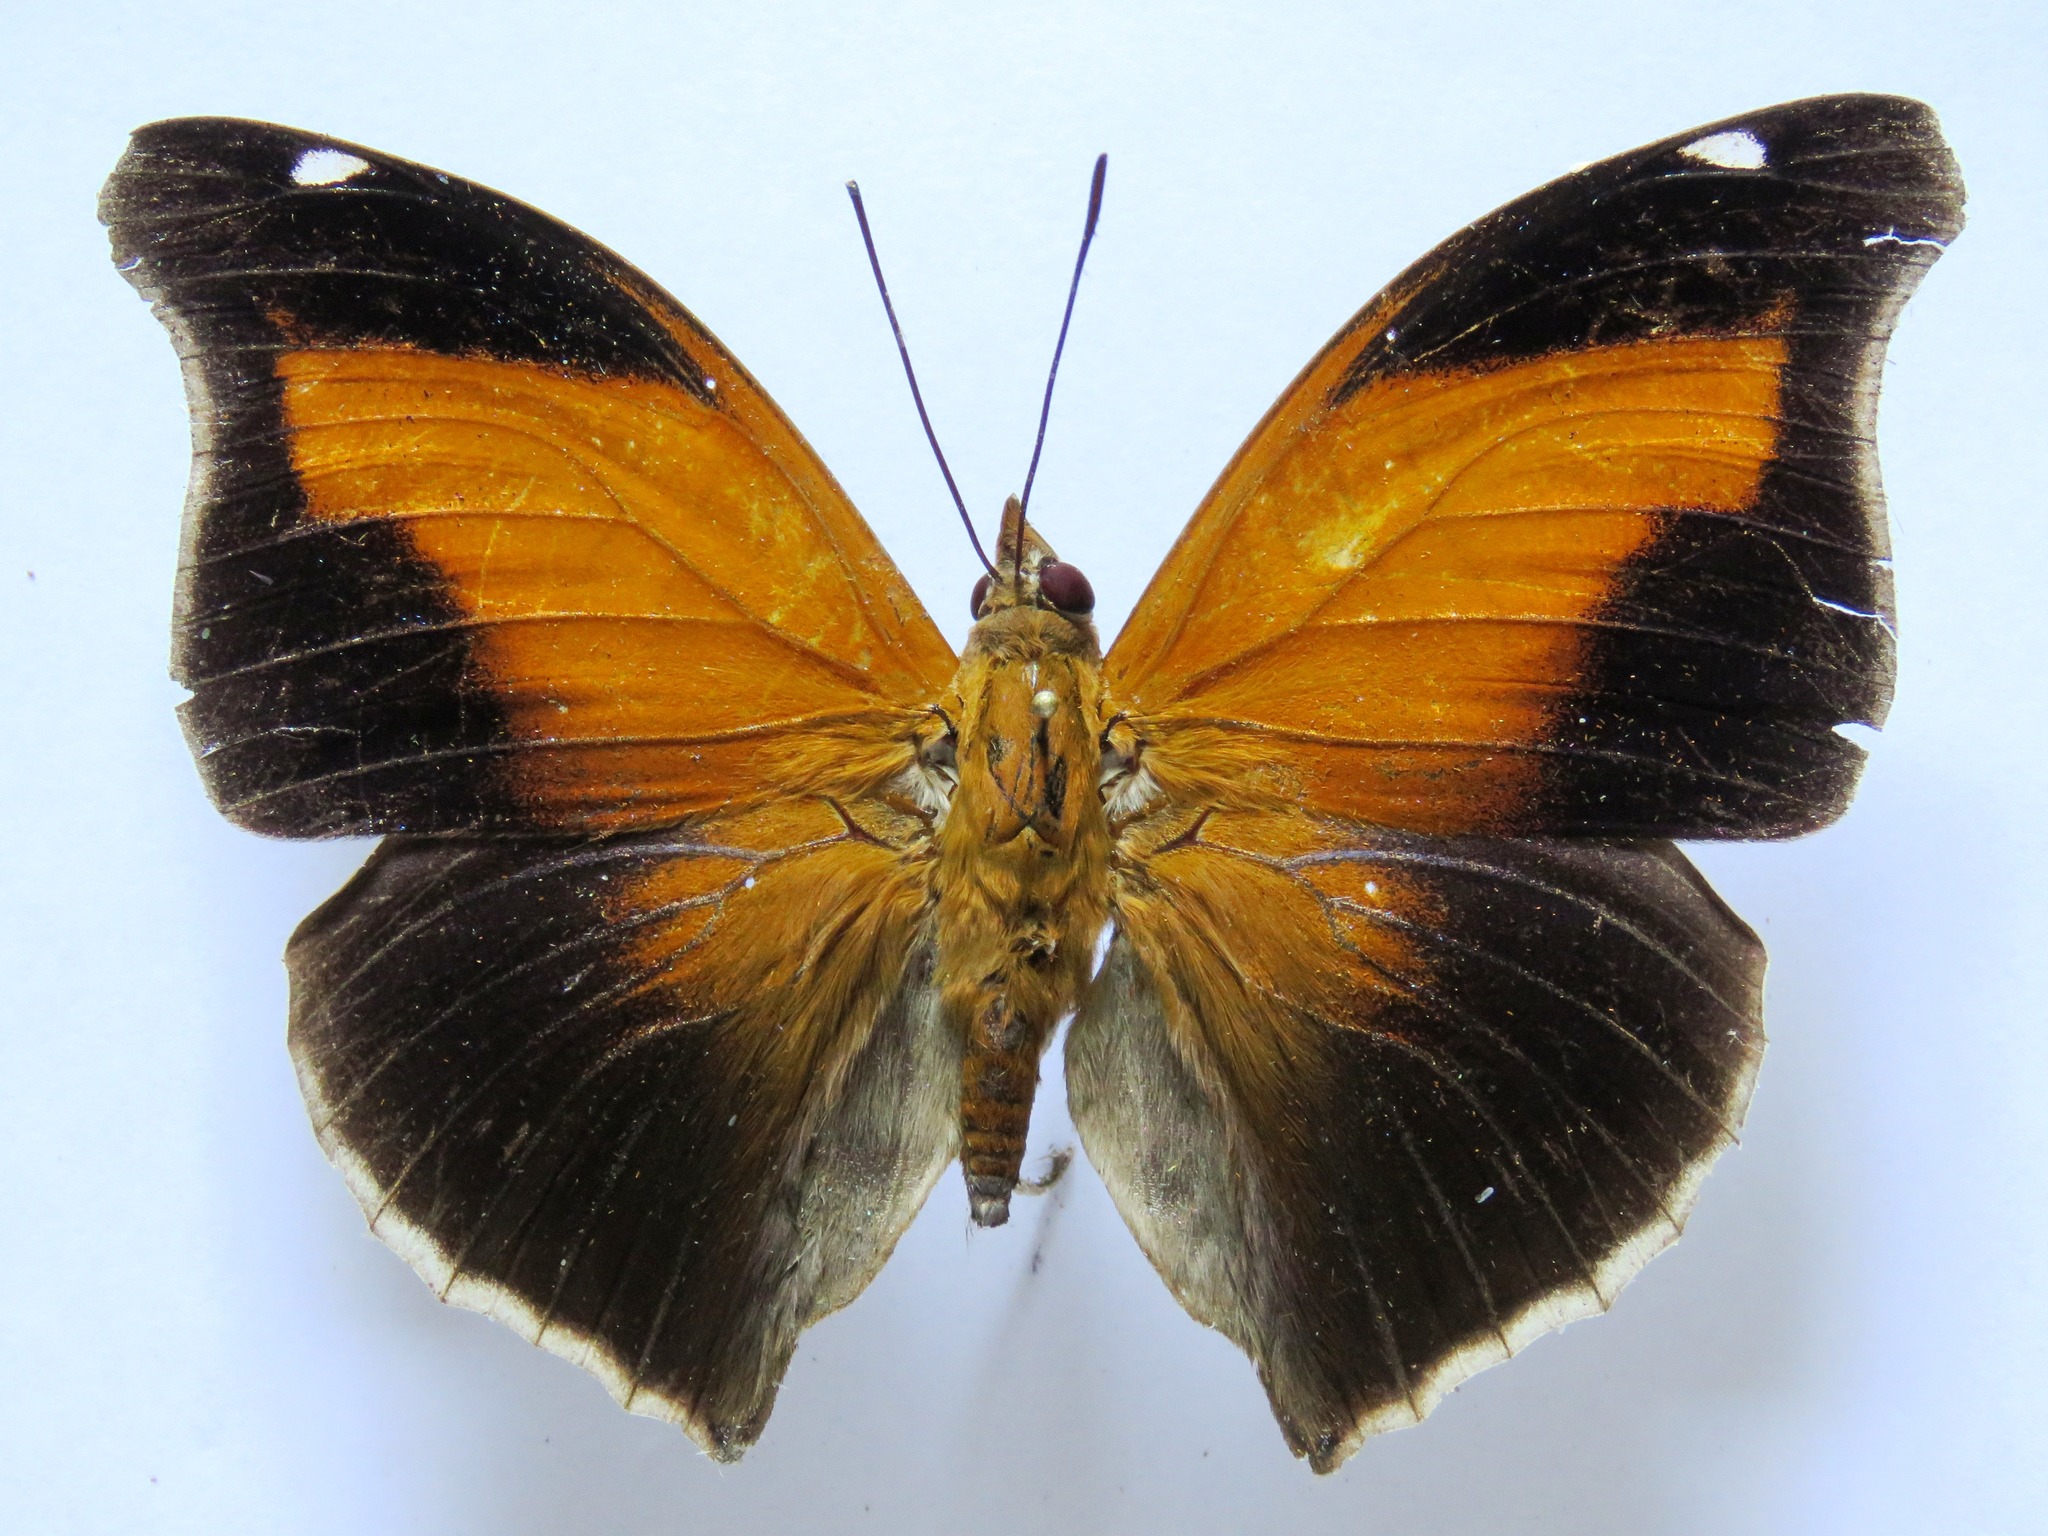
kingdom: Animalia
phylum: Arthropoda
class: Insecta
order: Lepidoptera
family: Nymphalidae
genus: Historis
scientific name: Historis odius
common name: Orion cecropian
